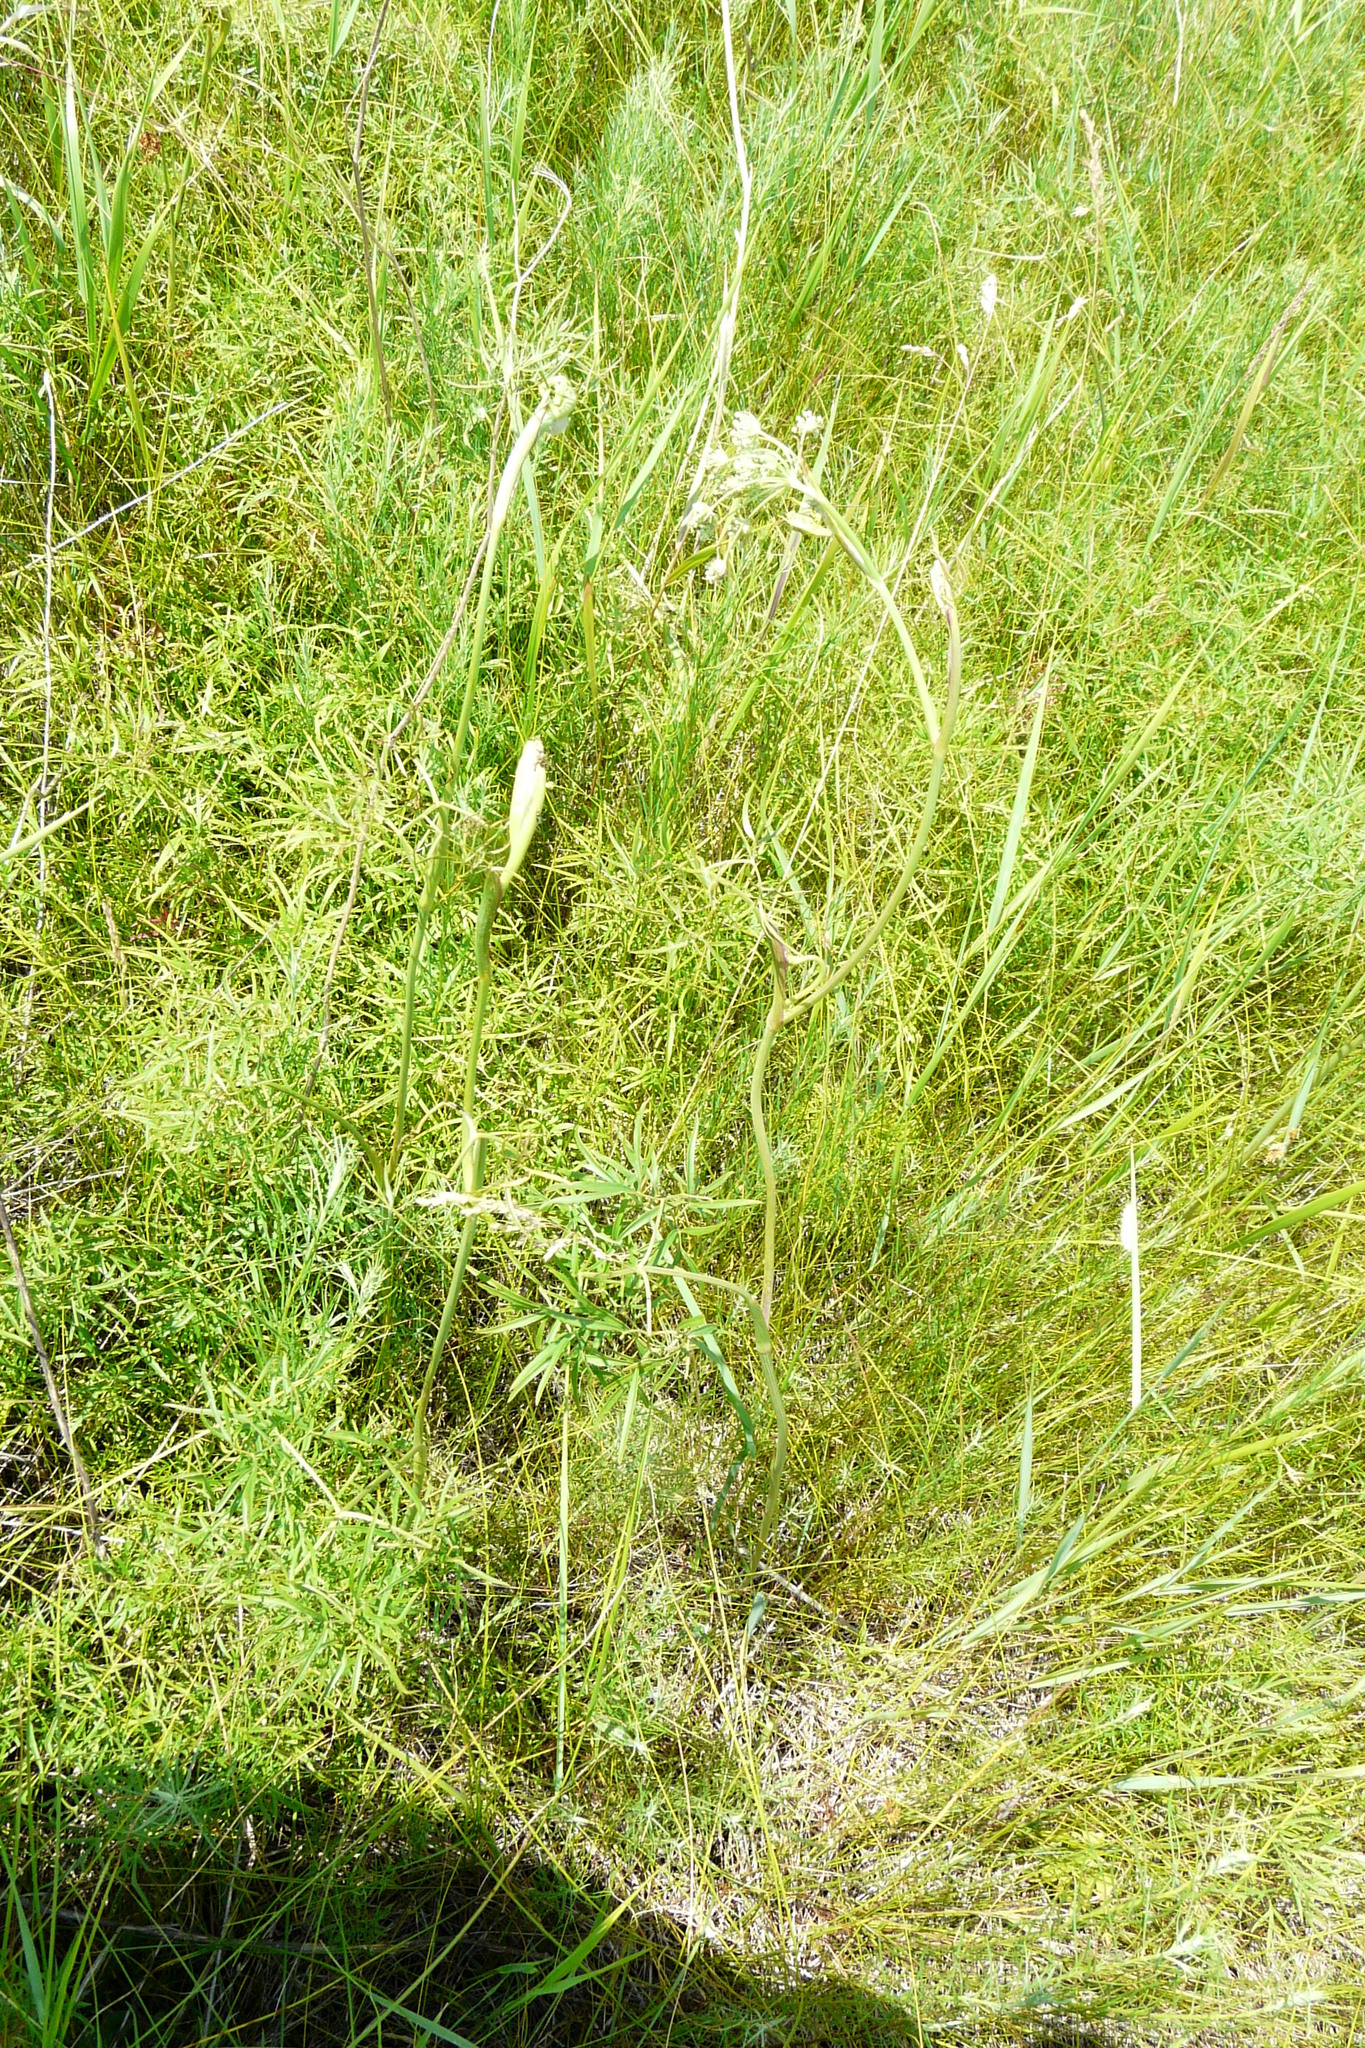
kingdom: Plantae
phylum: Tracheophyta
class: Magnoliopsida
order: Apiales
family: Apiaceae
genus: Cenolophium
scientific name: Cenolophium fischeri
